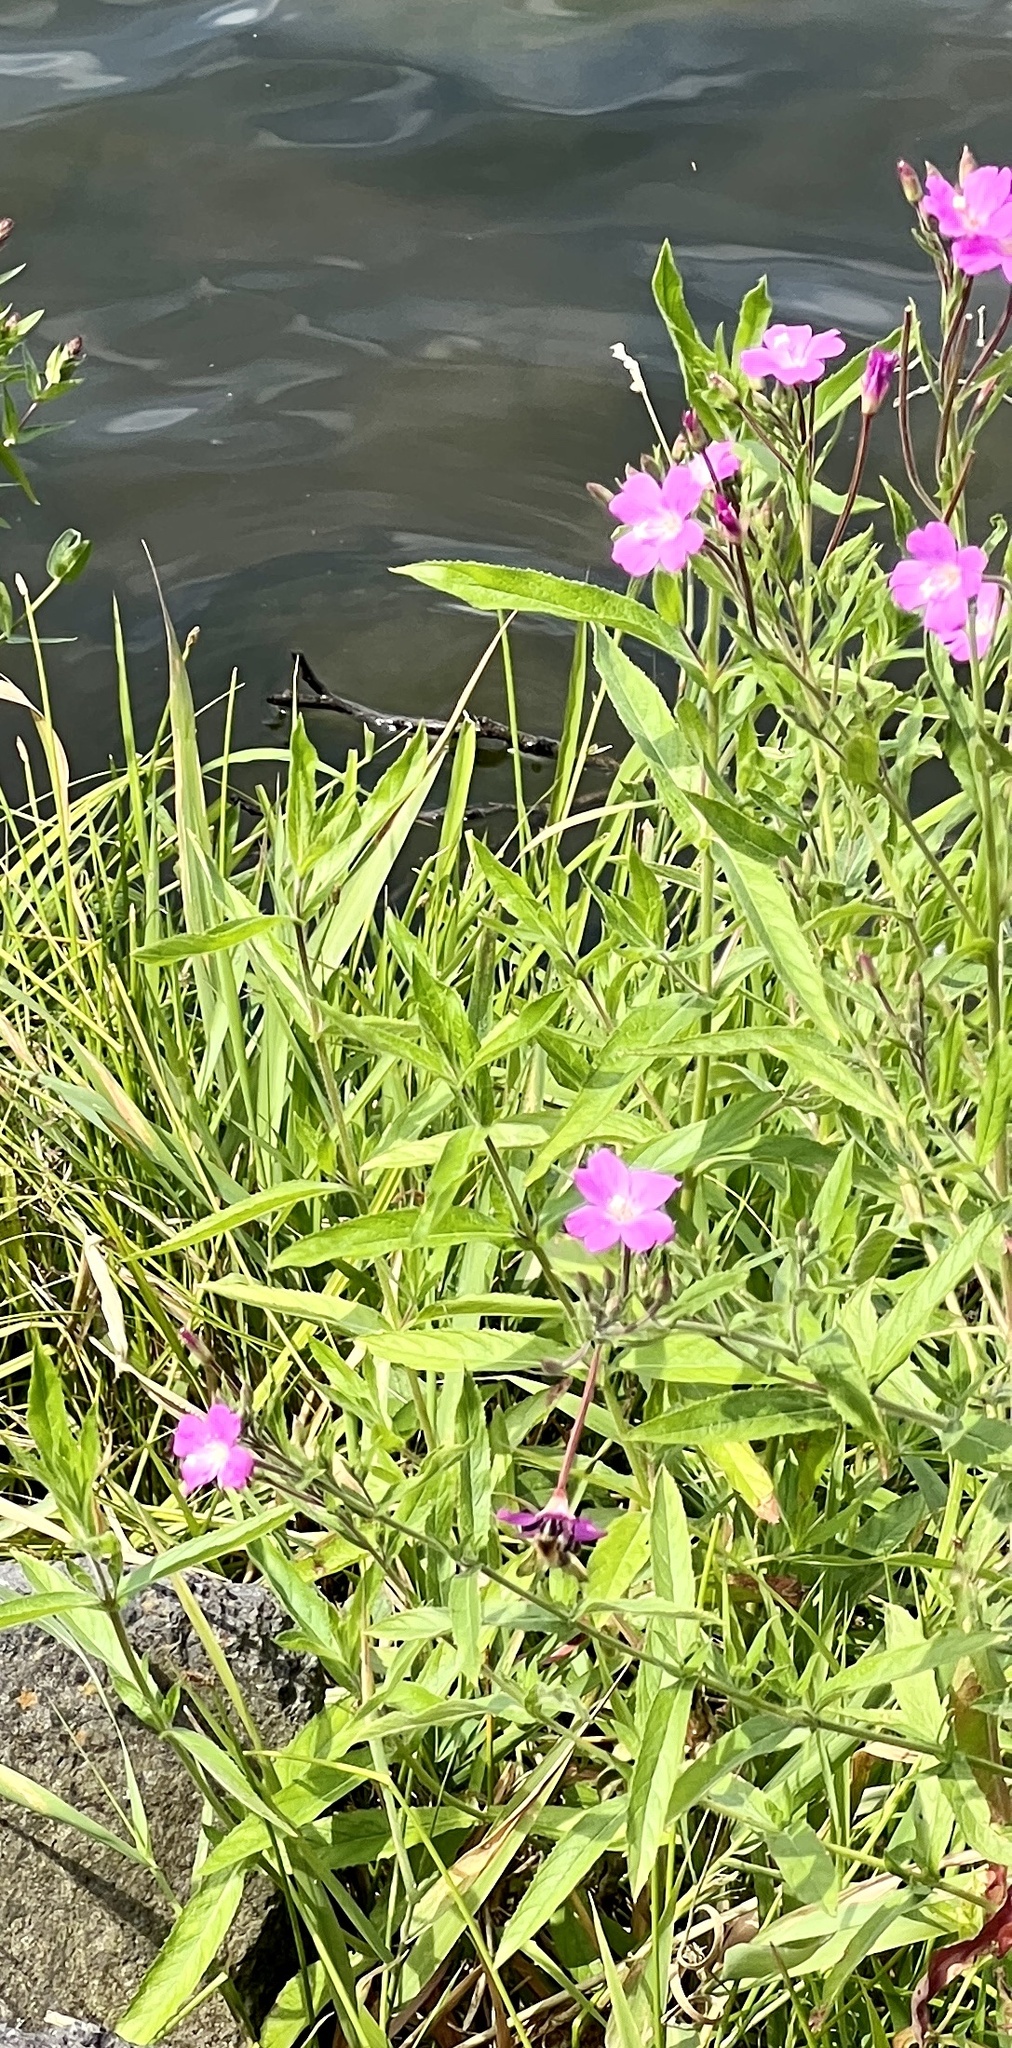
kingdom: Plantae
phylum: Tracheophyta
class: Magnoliopsida
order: Myrtales
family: Onagraceae
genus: Epilobium
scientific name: Epilobium hirsutum
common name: Great willowherb
